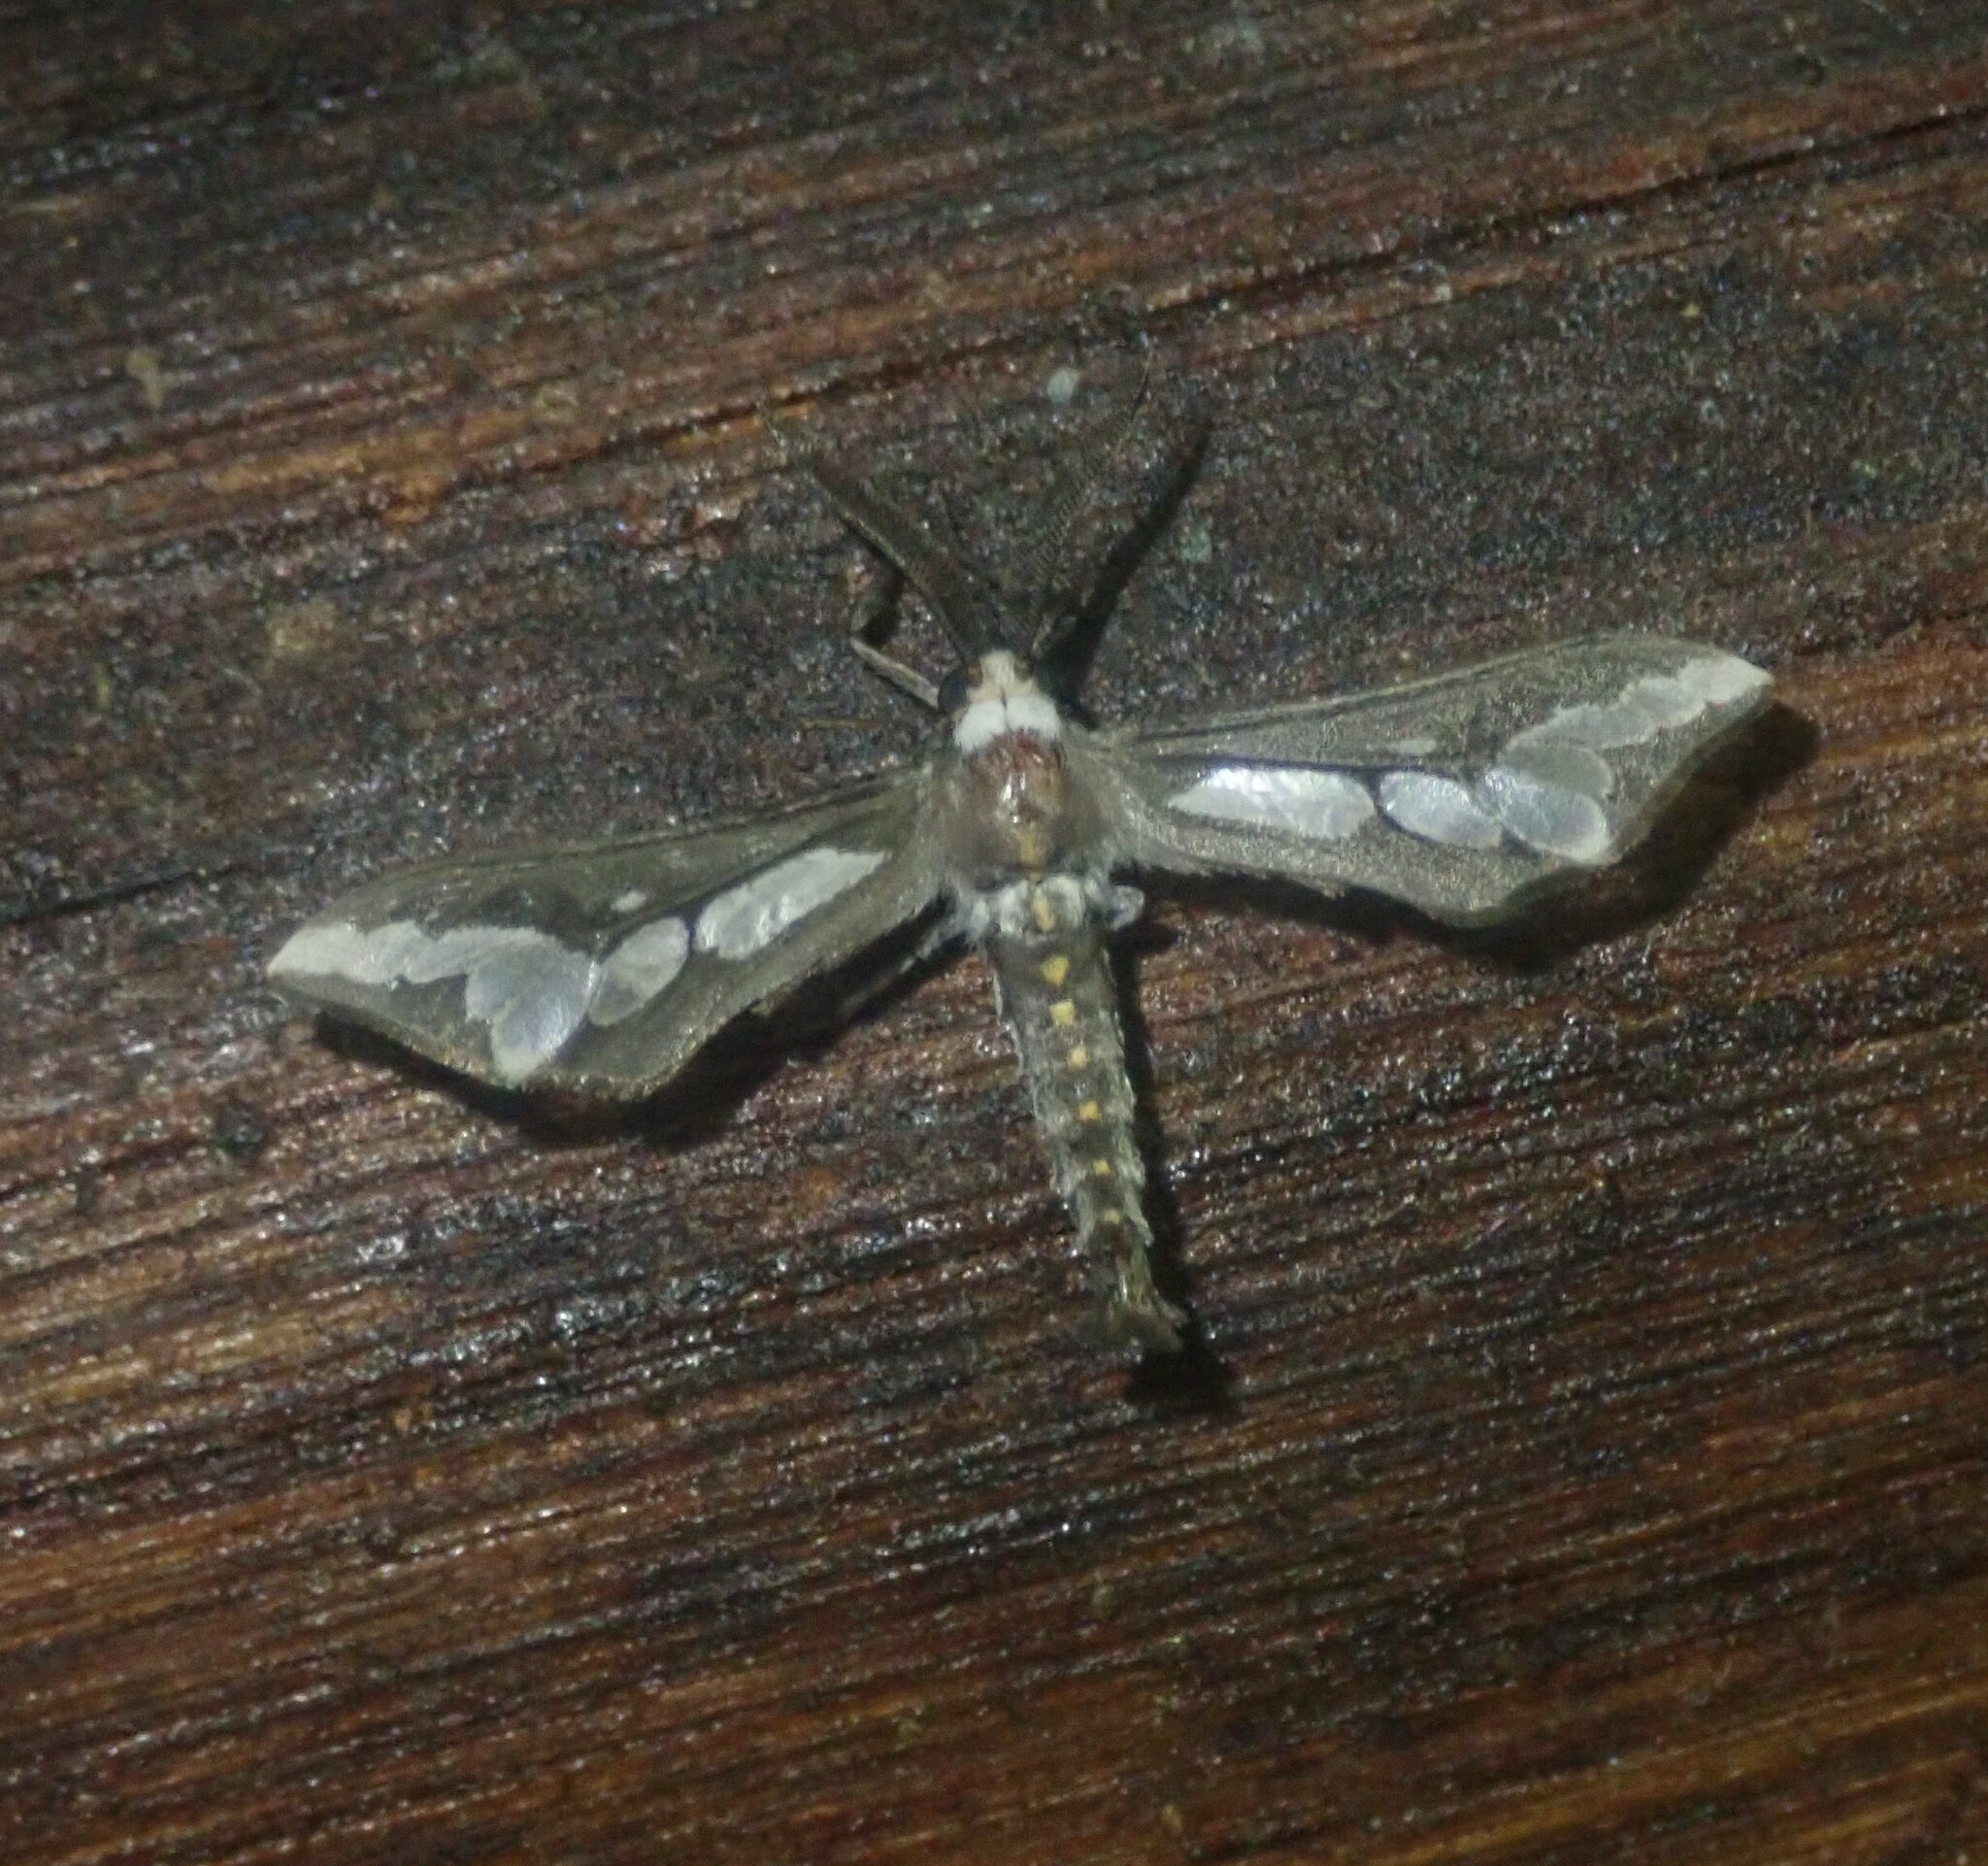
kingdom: Animalia
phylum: Arthropoda
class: Insecta
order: Lepidoptera
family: Erebidae
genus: Thyretes
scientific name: Thyretes caffra
